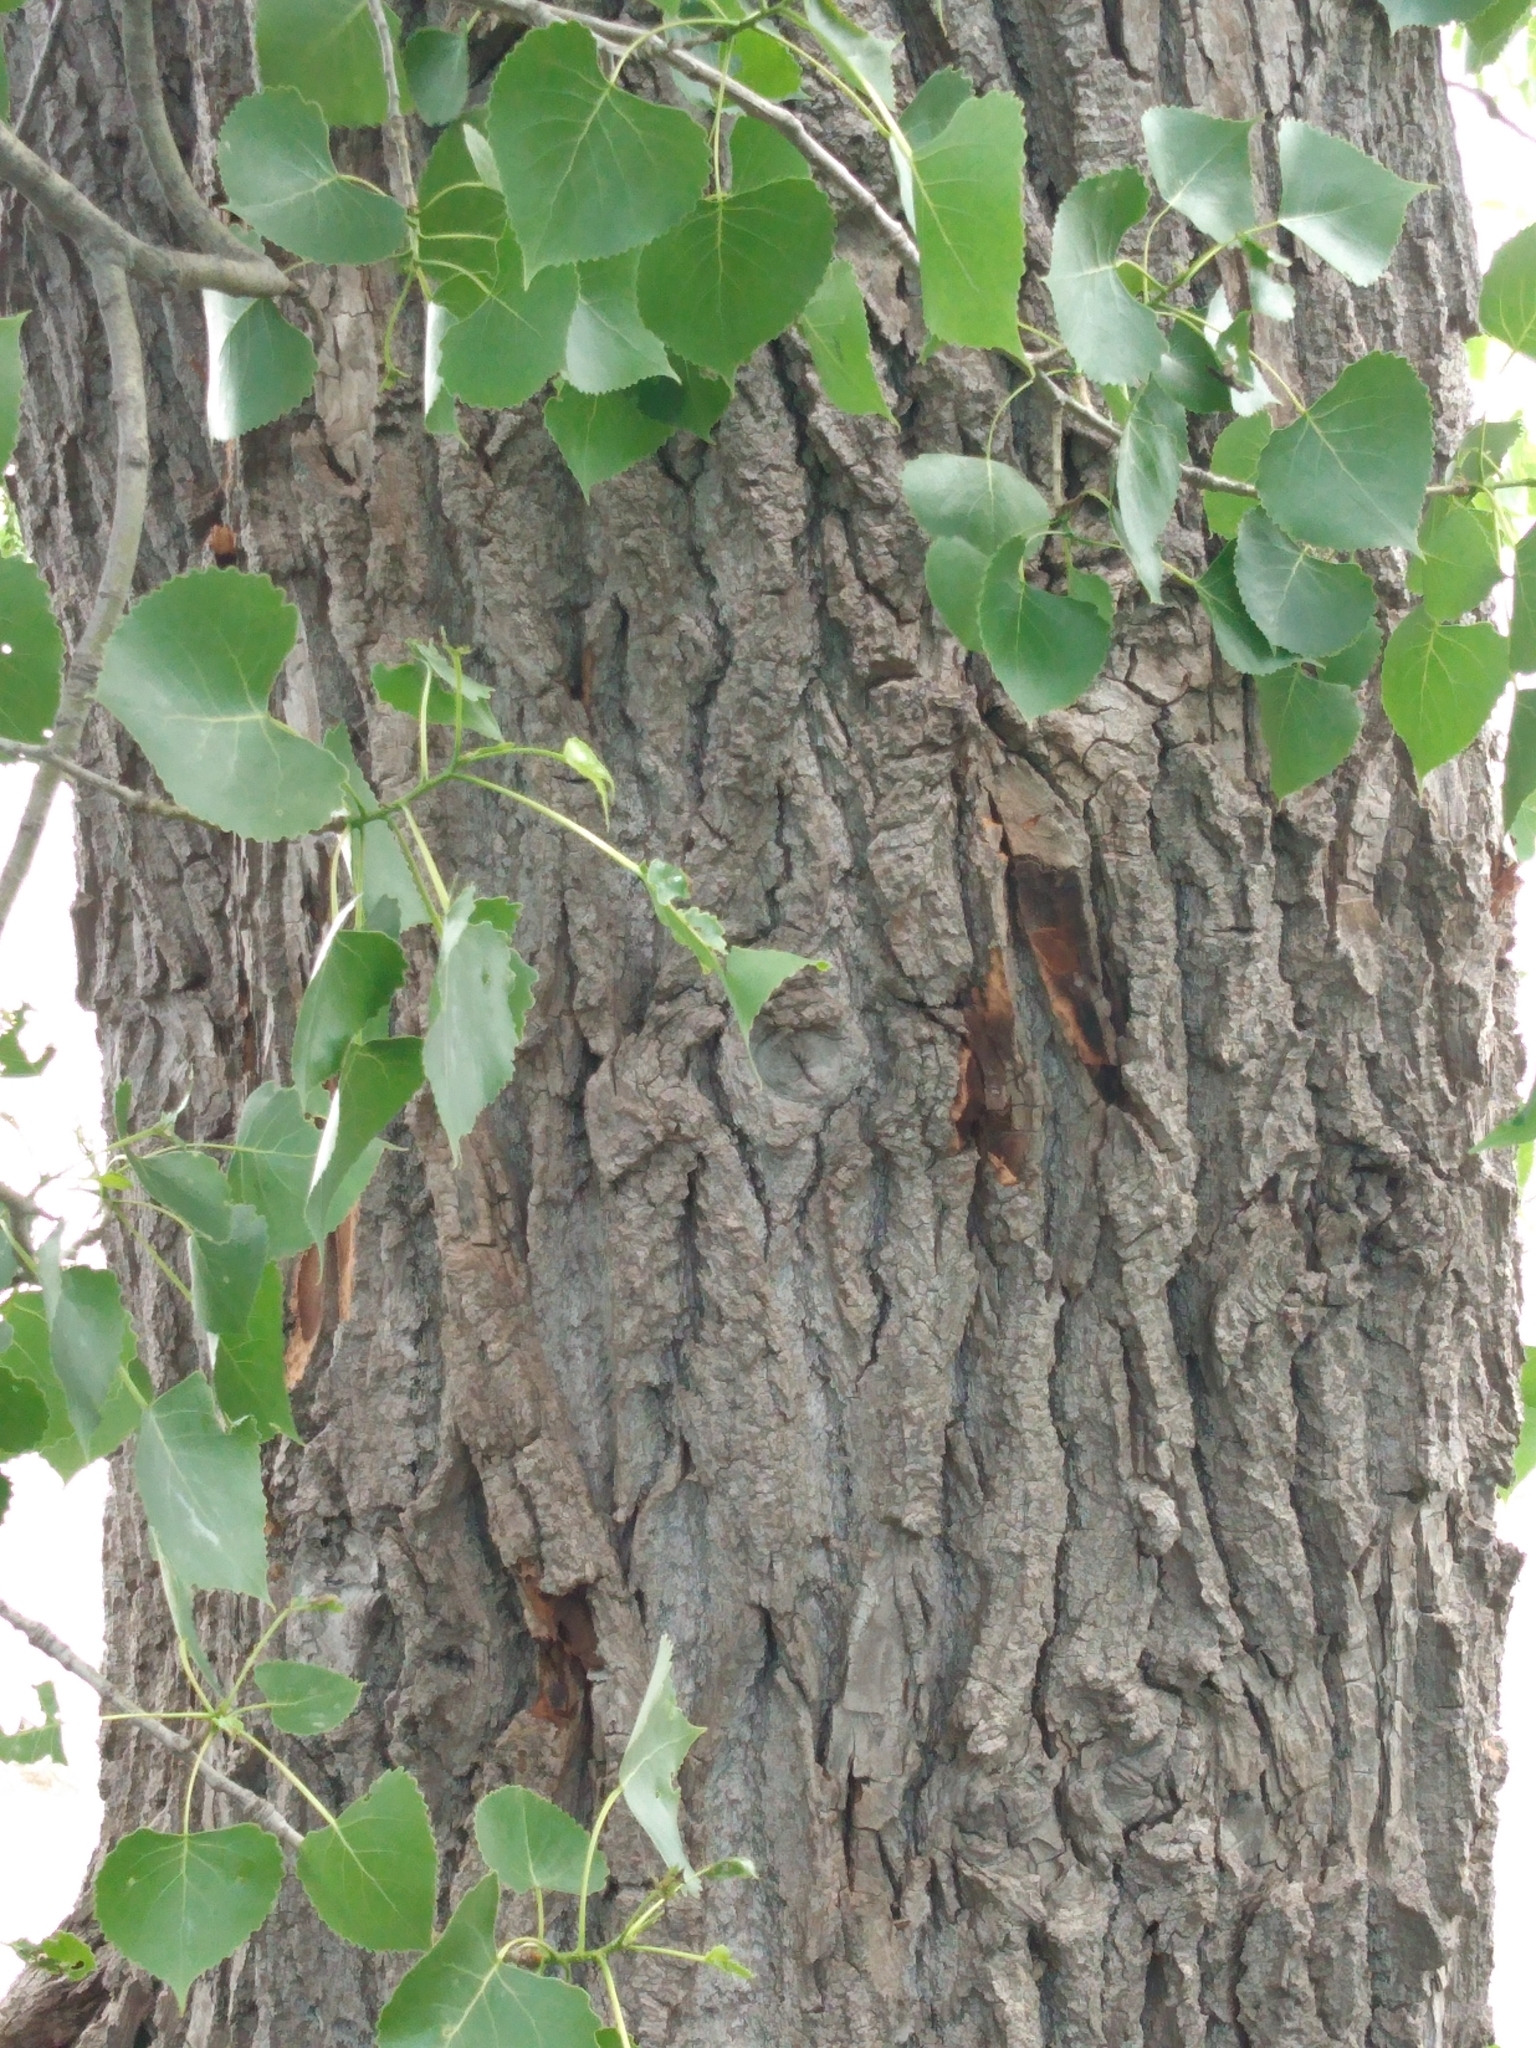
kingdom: Plantae
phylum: Tracheophyta
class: Magnoliopsida
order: Malpighiales
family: Salicaceae
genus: Populus
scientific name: Populus deltoides
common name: Eastern cottonwood
